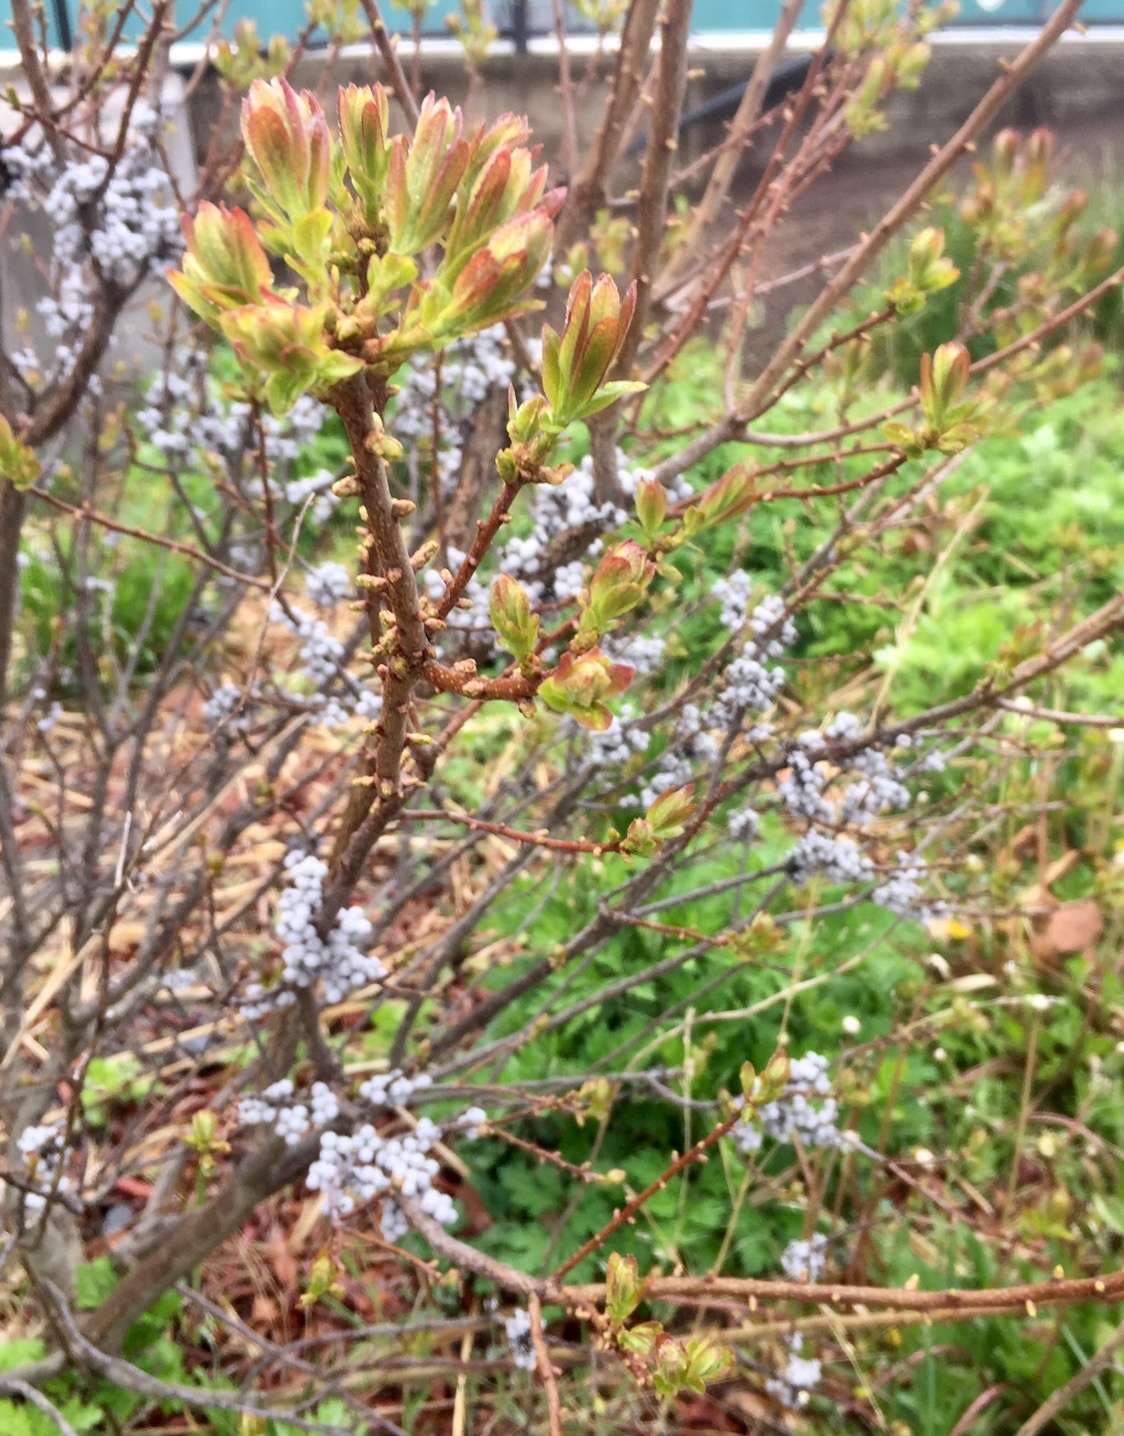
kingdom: Plantae
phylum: Tracheophyta
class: Magnoliopsida
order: Fagales
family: Myricaceae
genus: Morella
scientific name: Morella pensylvanica
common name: Northern bayberry
